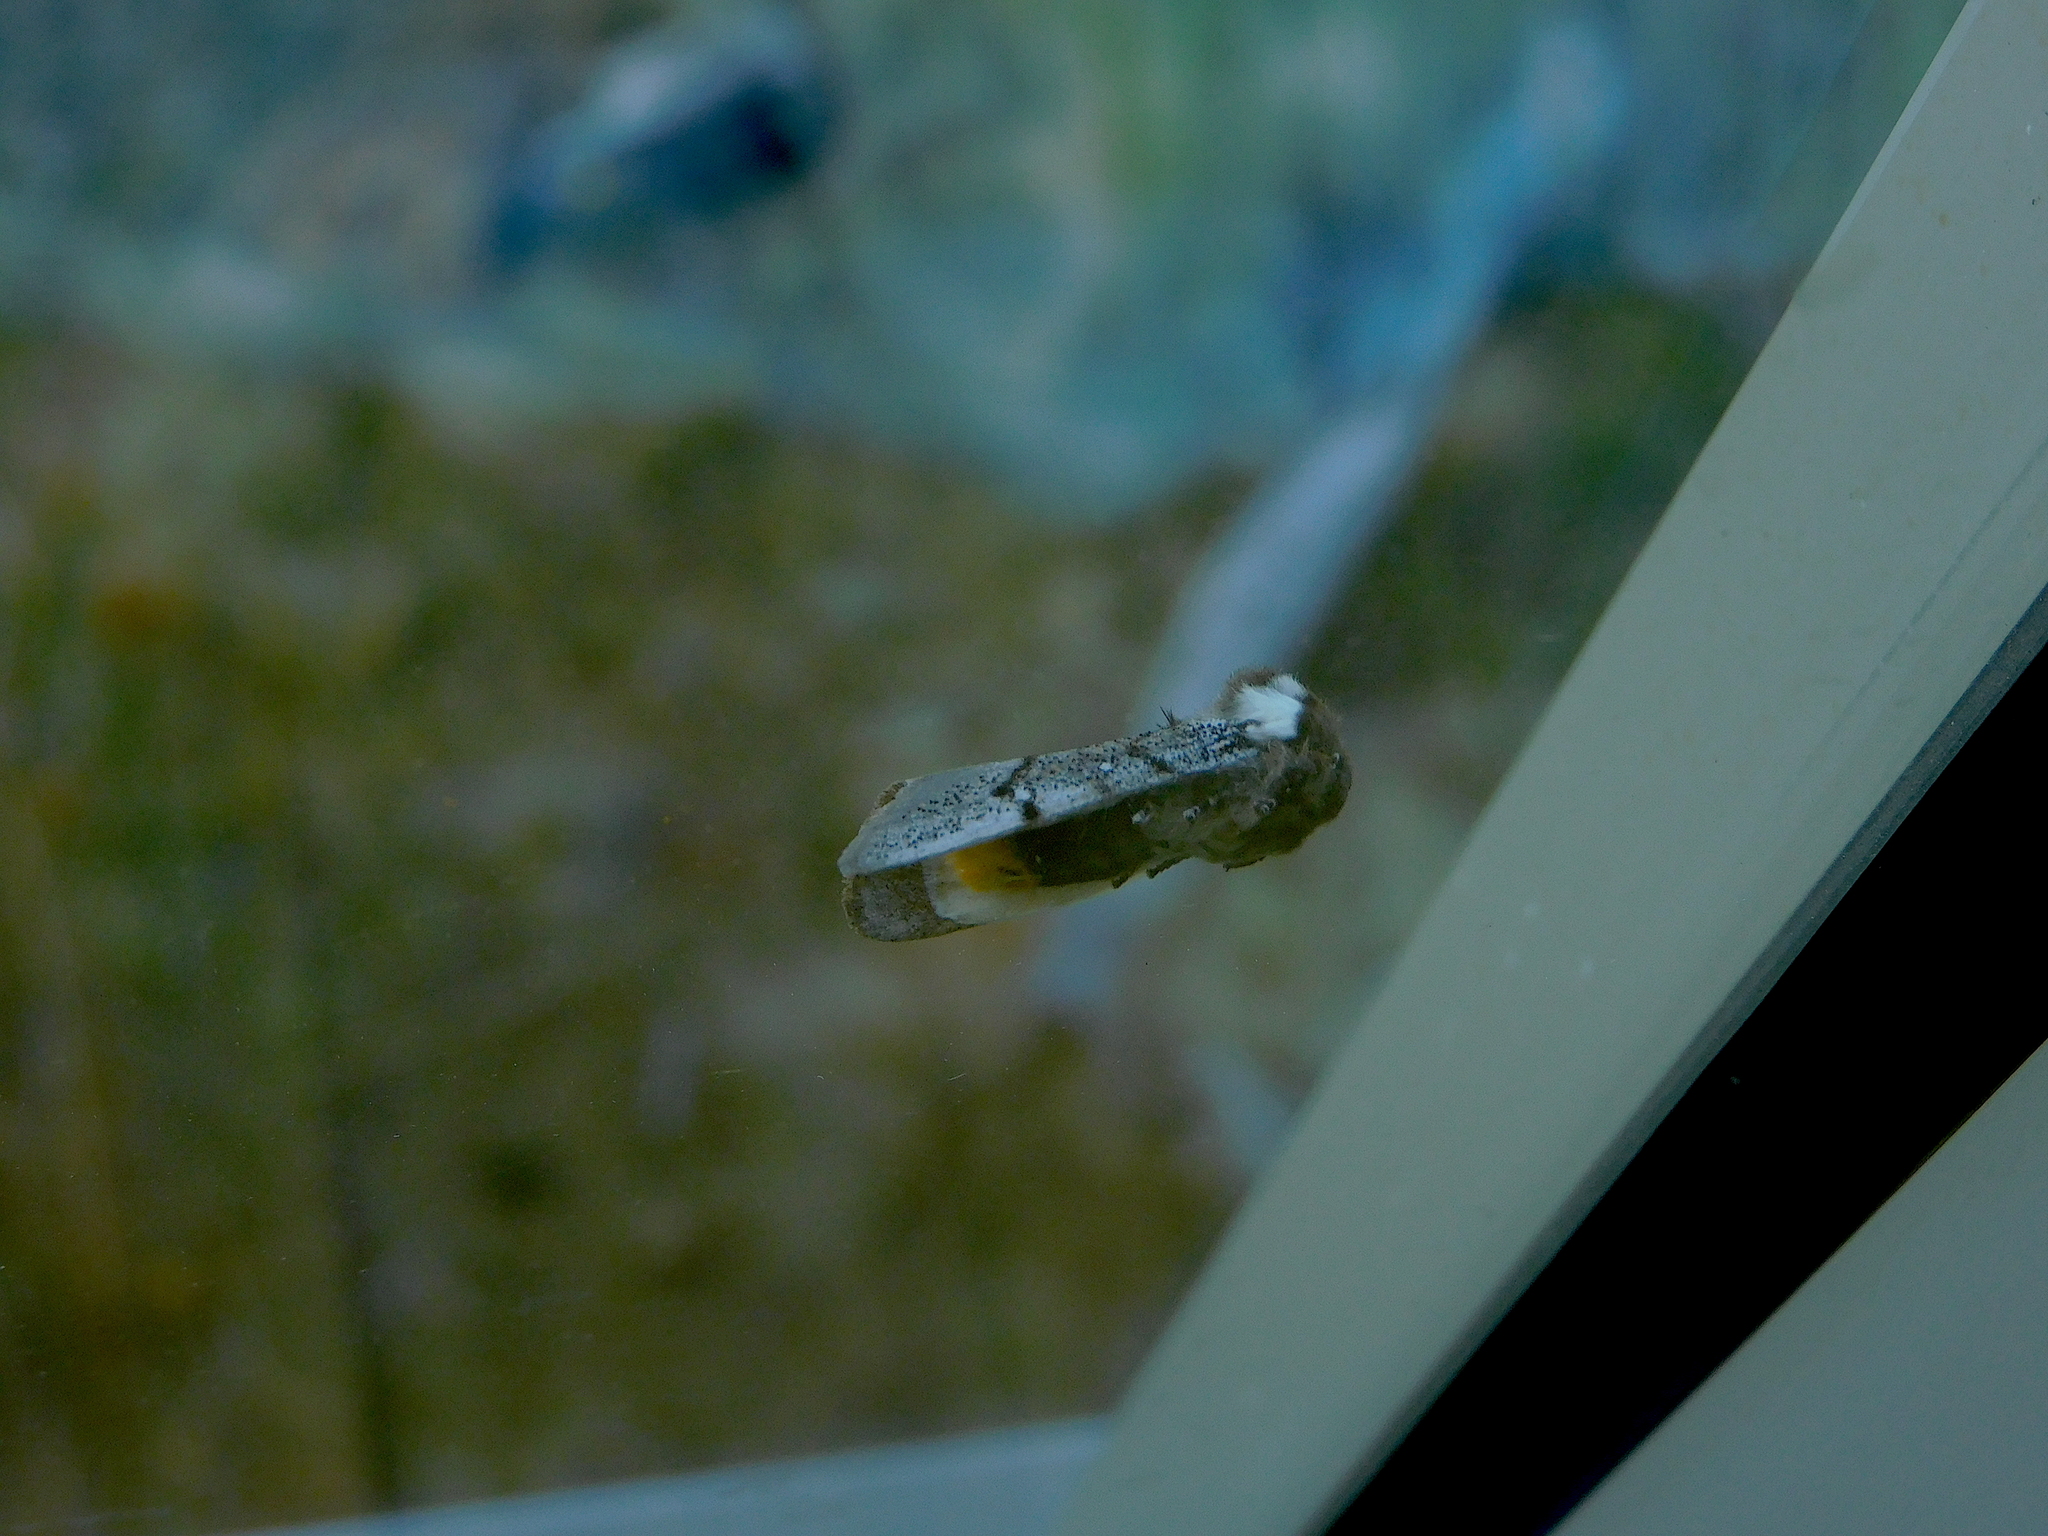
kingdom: Animalia
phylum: Arthropoda
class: Insecta
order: Lepidoptera
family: Oenosandridae
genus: Oenosandra
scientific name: Oenosandra boisduvalii
